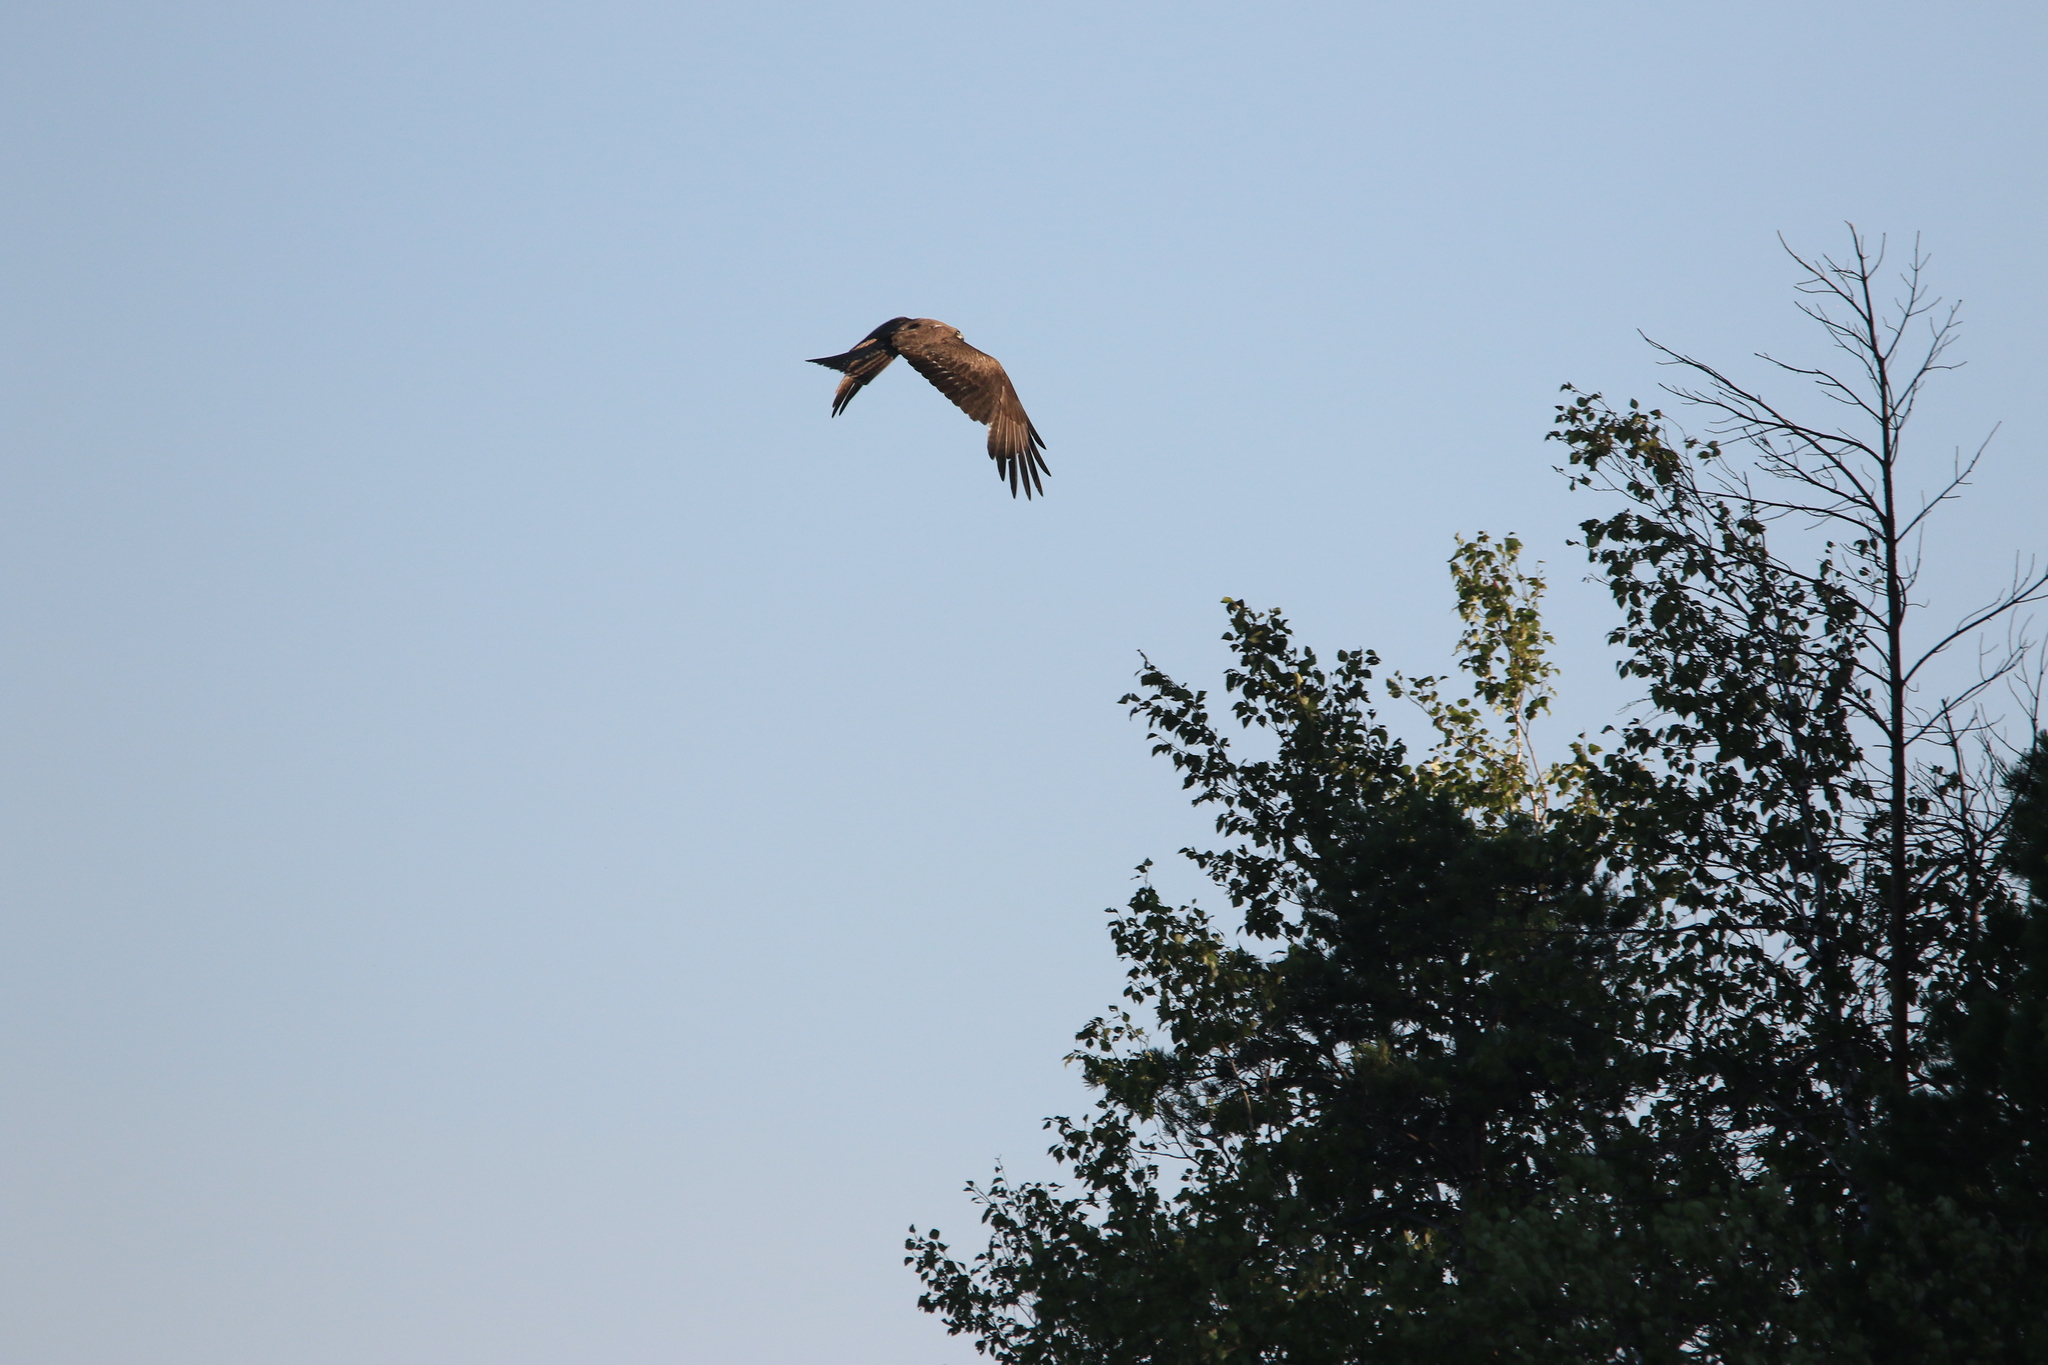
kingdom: Animalia
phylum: Chordata
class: Aves
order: Accipitriformes
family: Accipitridae
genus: Milvus
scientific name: Milvus migrans
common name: Black kite
